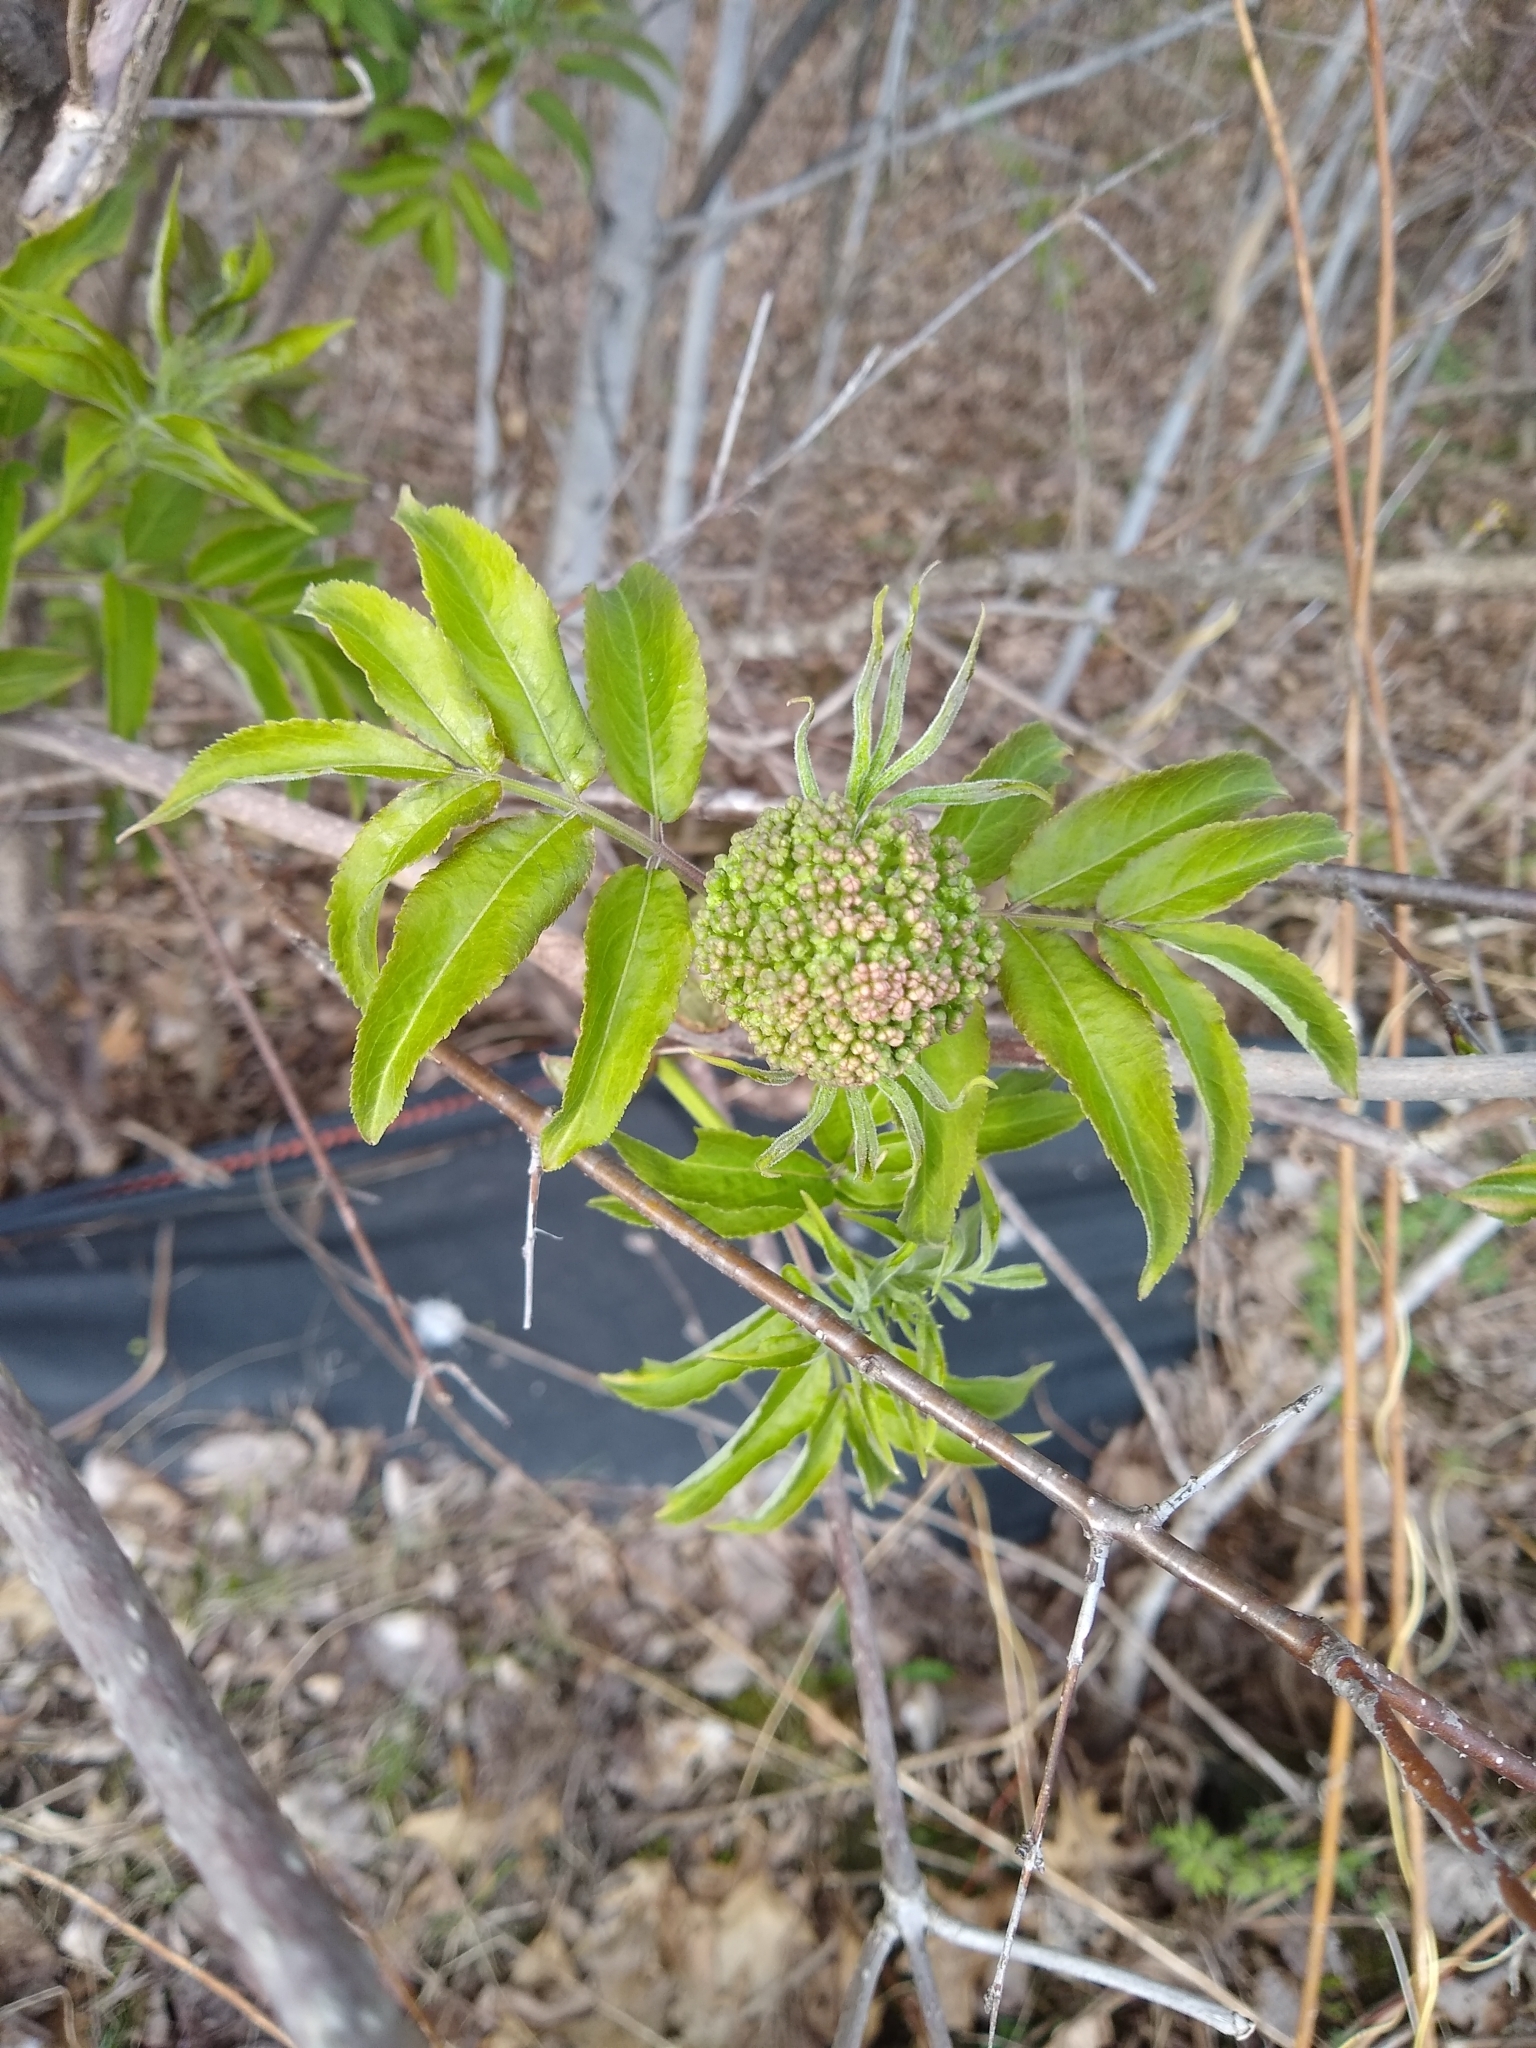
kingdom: Plantae
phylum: Tracheophyta
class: Magnoliopsida
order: Dipsacales
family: Viburnaceae
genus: Sambucus
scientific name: Sambucus racemosa
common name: Red-berried elder
